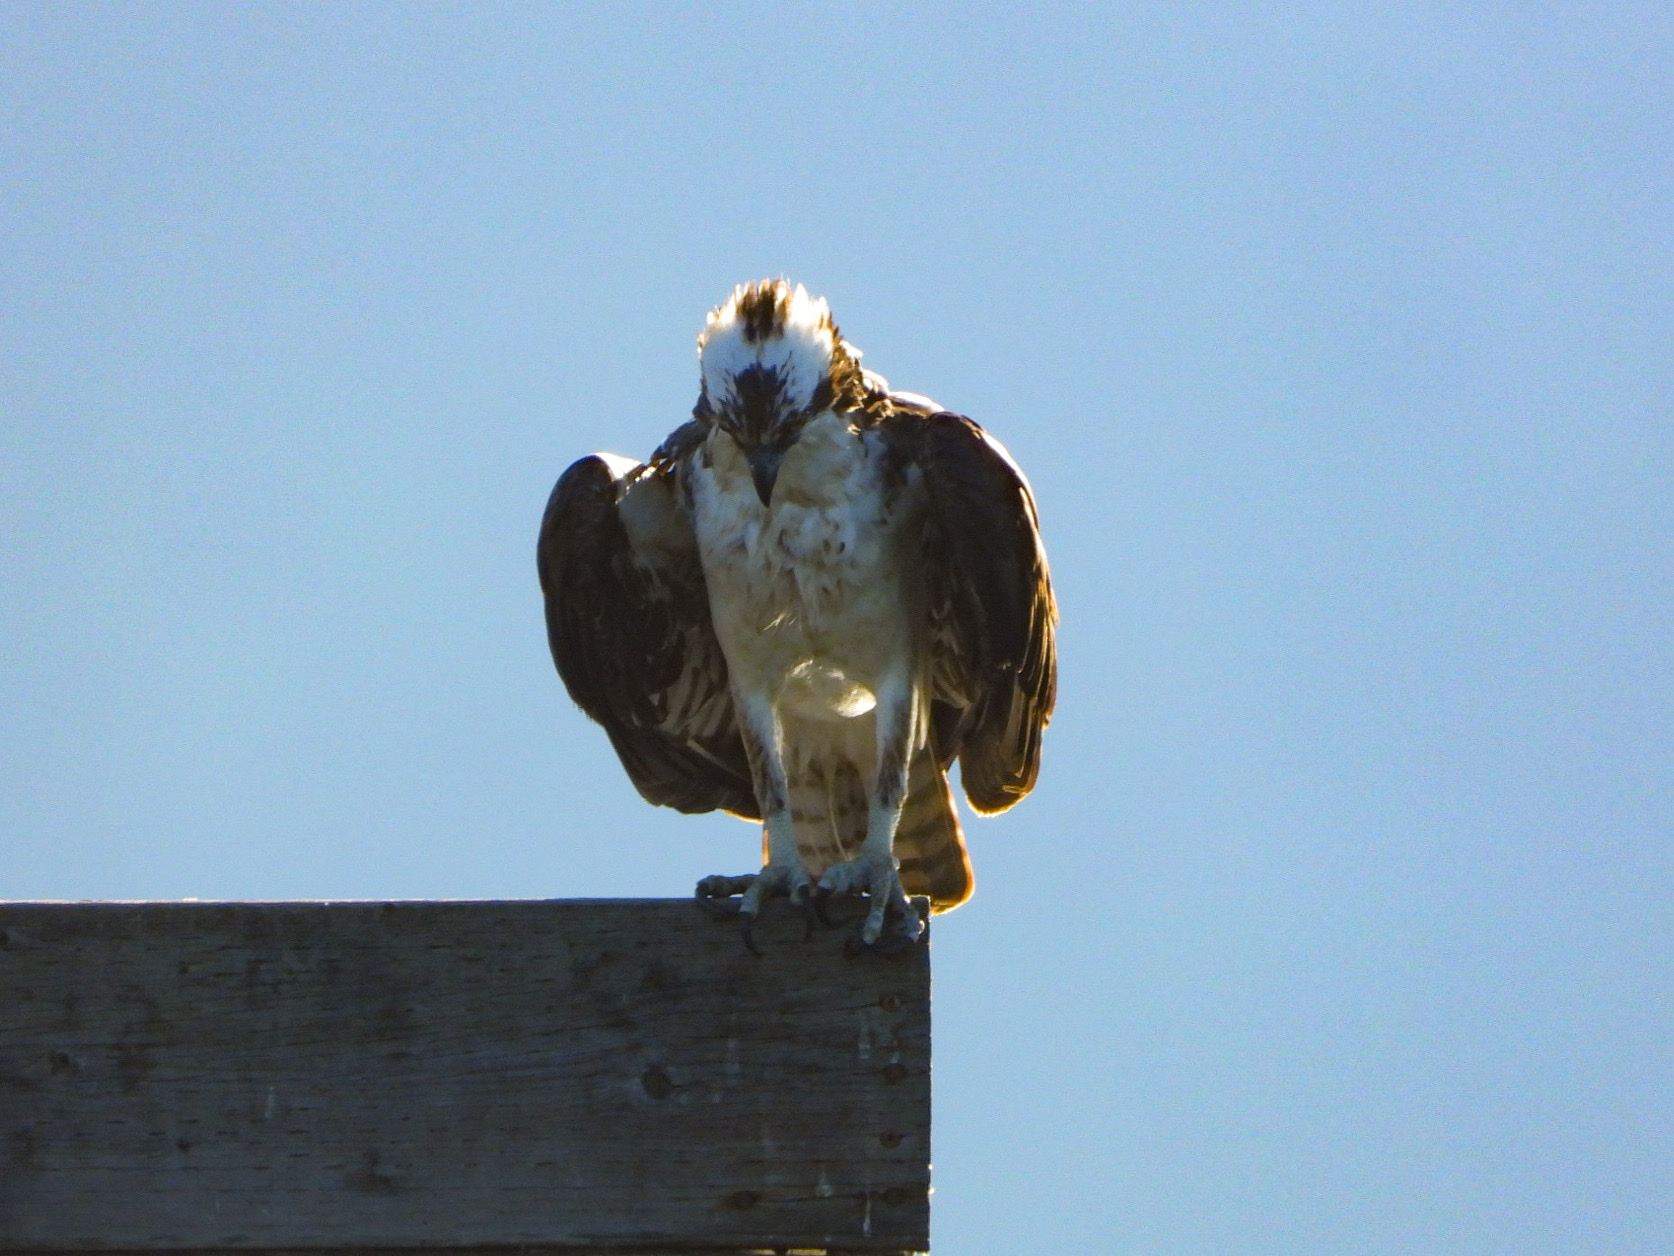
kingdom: Animalia
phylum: Chordata
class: Aves
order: Accipitriformes
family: Pandionidae
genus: Pandion
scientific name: Pandion haliaetus
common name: Osprey
